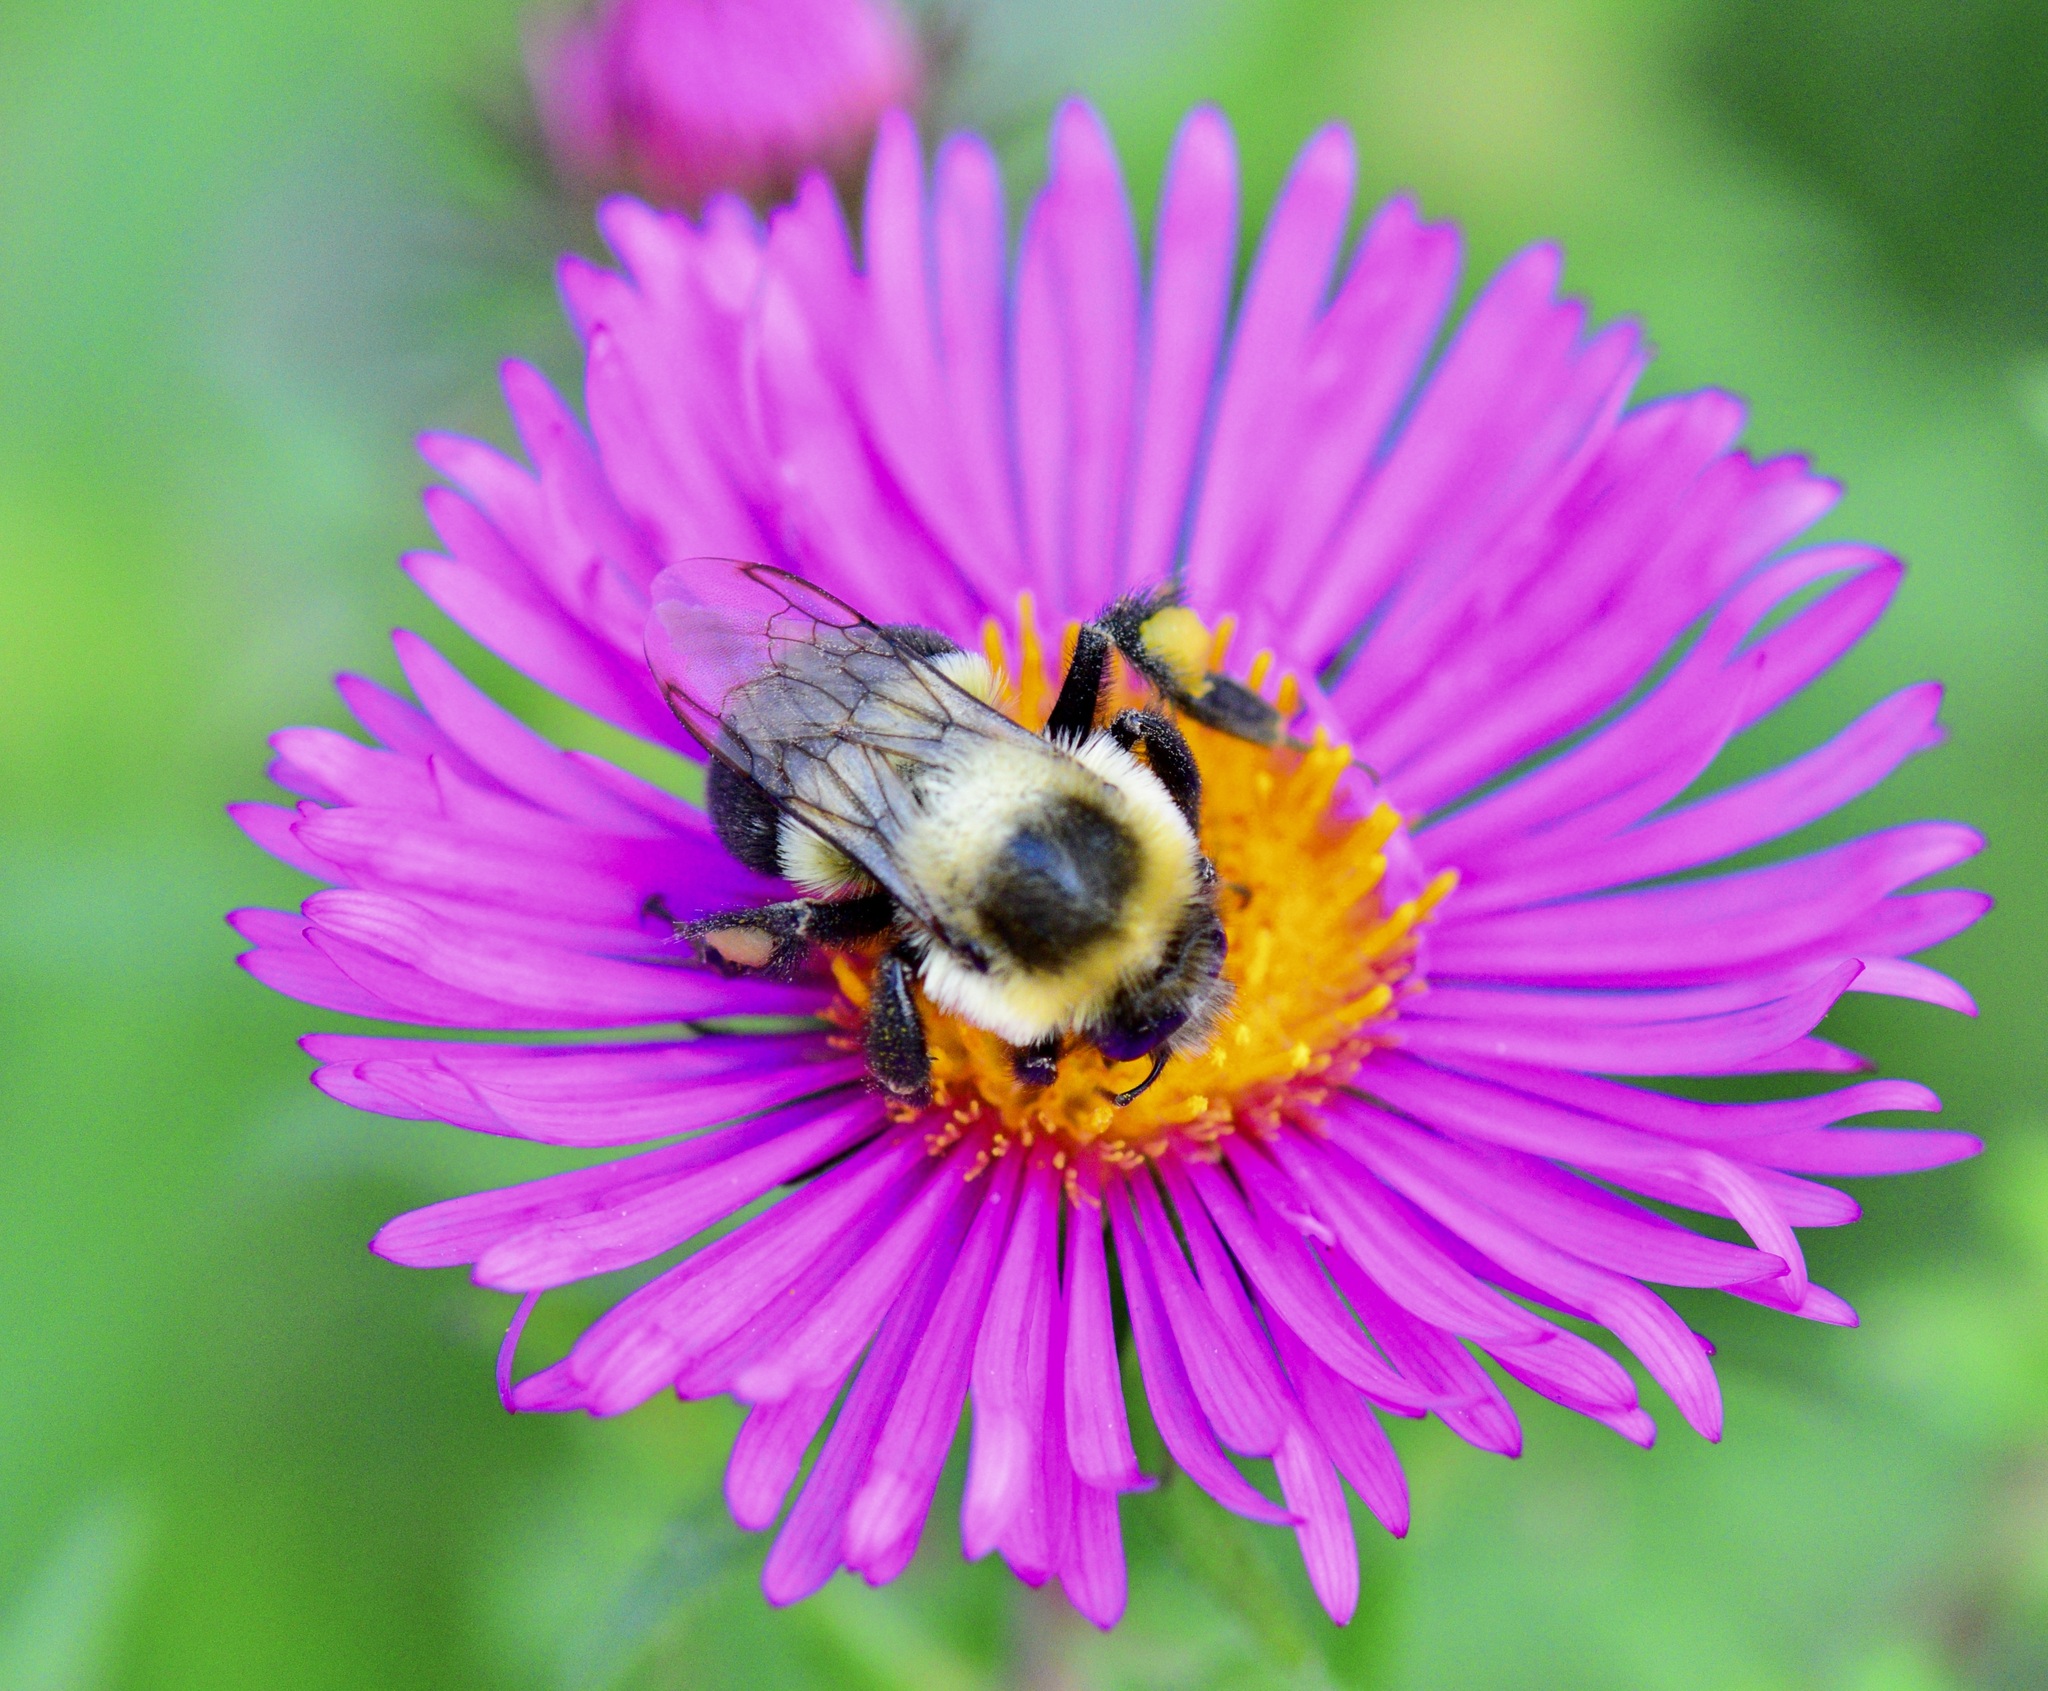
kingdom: Animalia
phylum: Arthropoda
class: Insecta
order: Hymenoptera
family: Apidae
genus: Bombus
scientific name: Bombus impatiens
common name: Common eastern bumble bee
